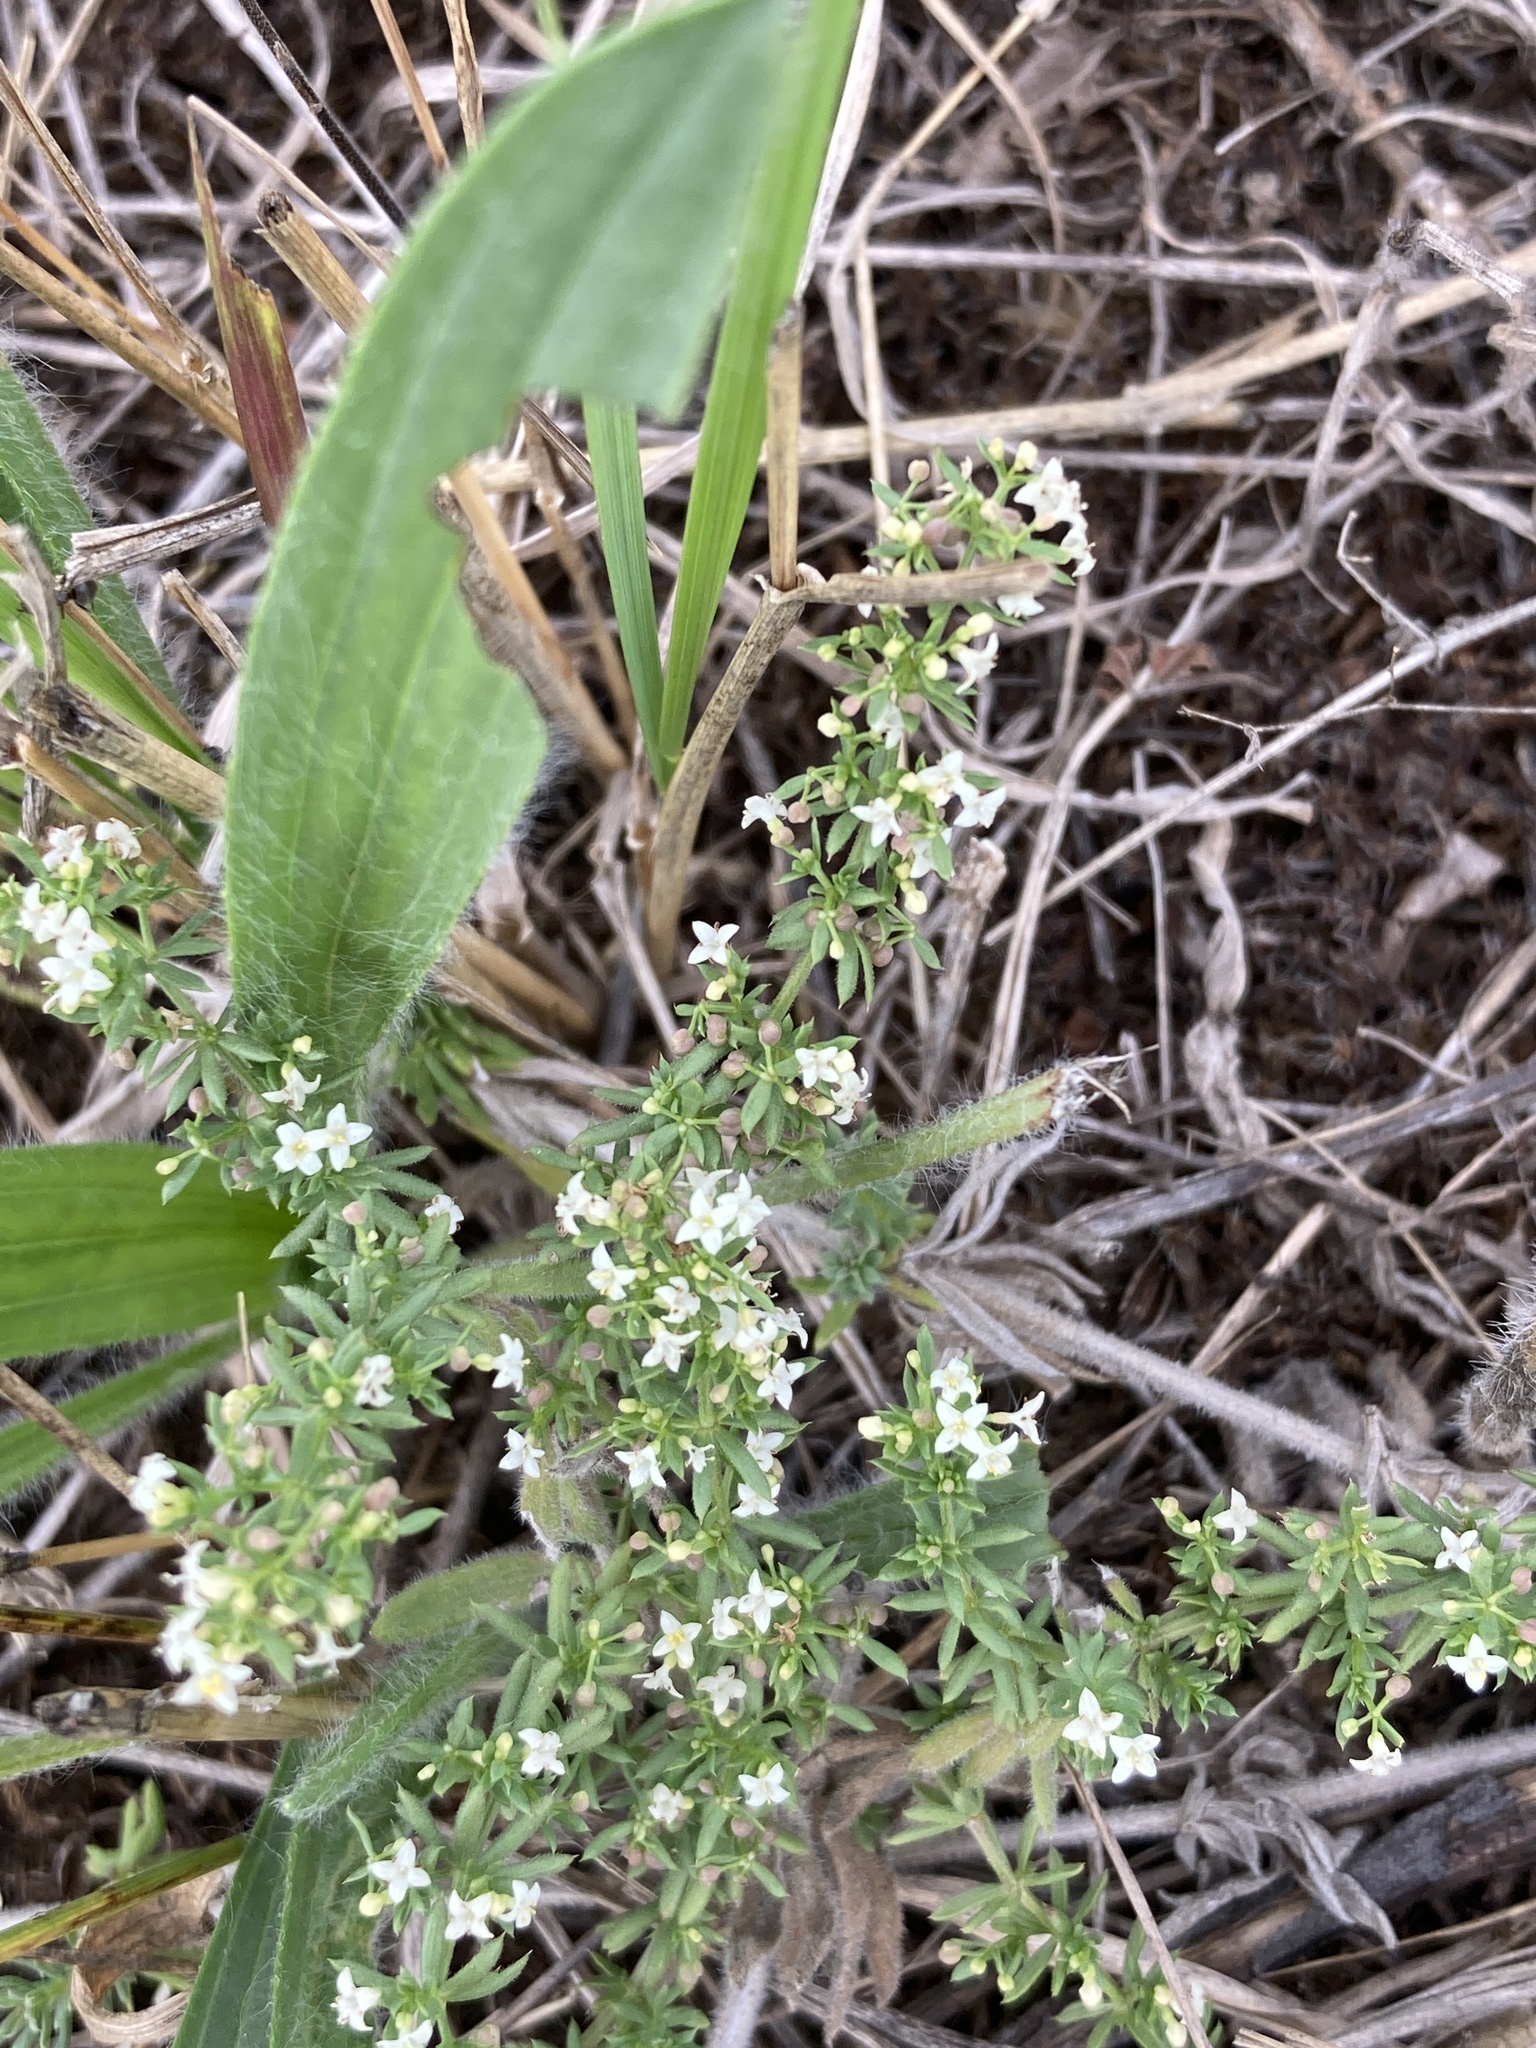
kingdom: Plantae
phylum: Tracheophyta
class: Magnoliopsida
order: Gentianales
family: Rubiaceae
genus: Galium
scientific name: Galium humifusum
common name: Spreading bedstraw
